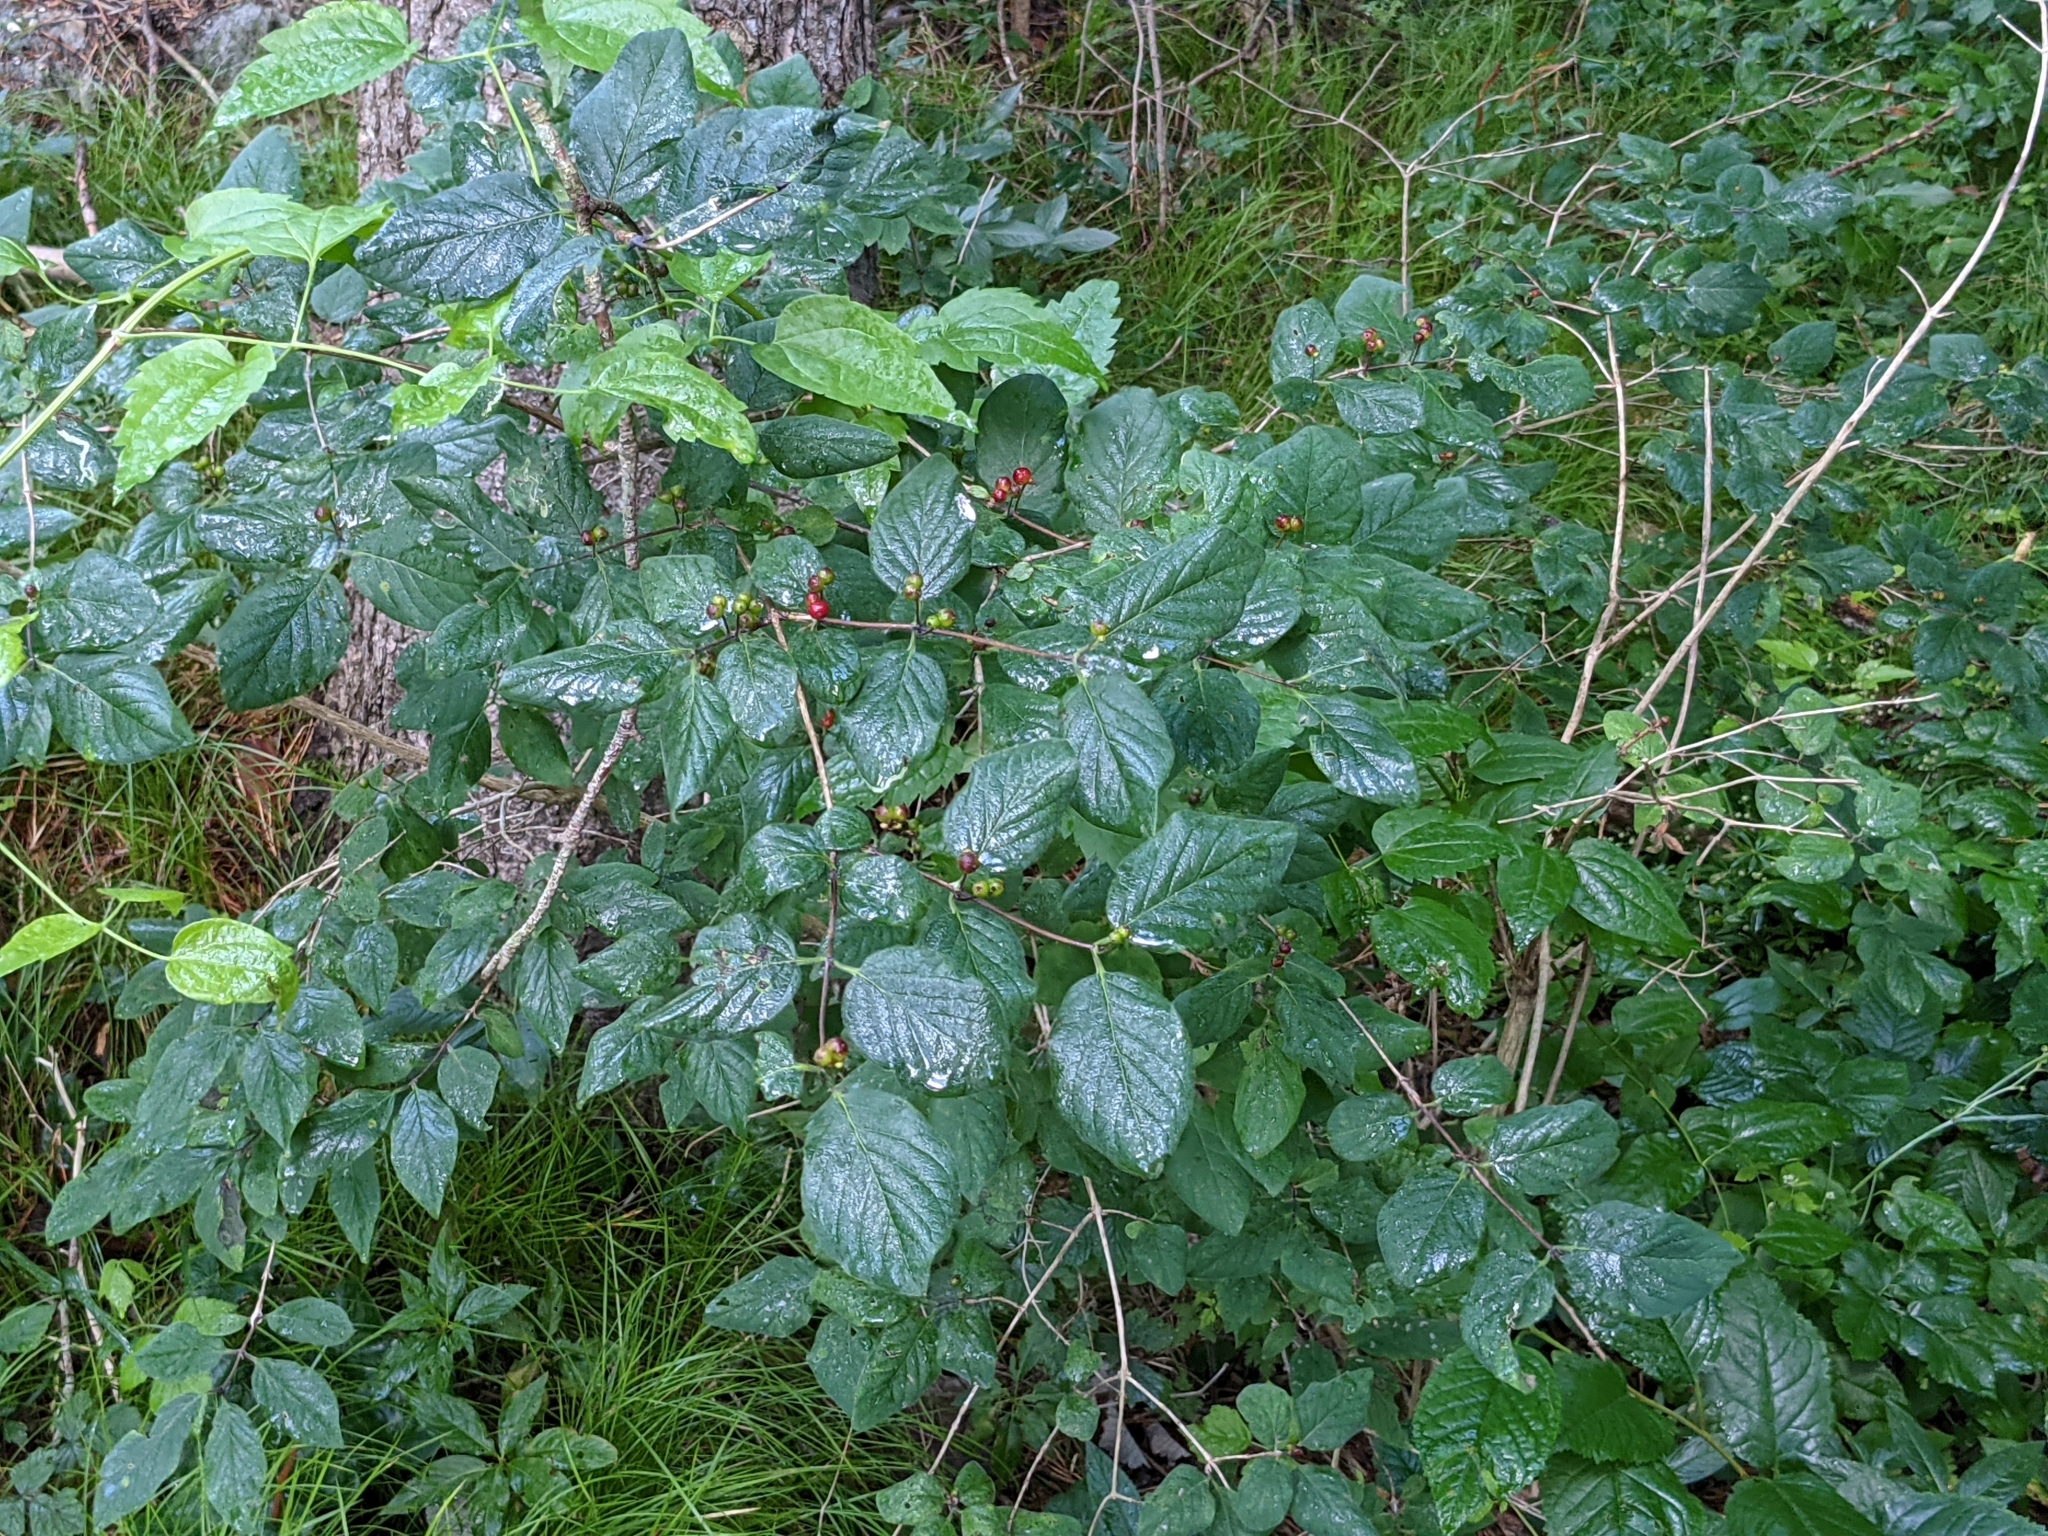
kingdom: Plantae
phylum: Tracheophyta
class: Magnoliopsida
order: Dipsacales
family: Caprifoliaceae
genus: Lonicera
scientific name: Lonicera xylosteum
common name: Fly honeysuckle
